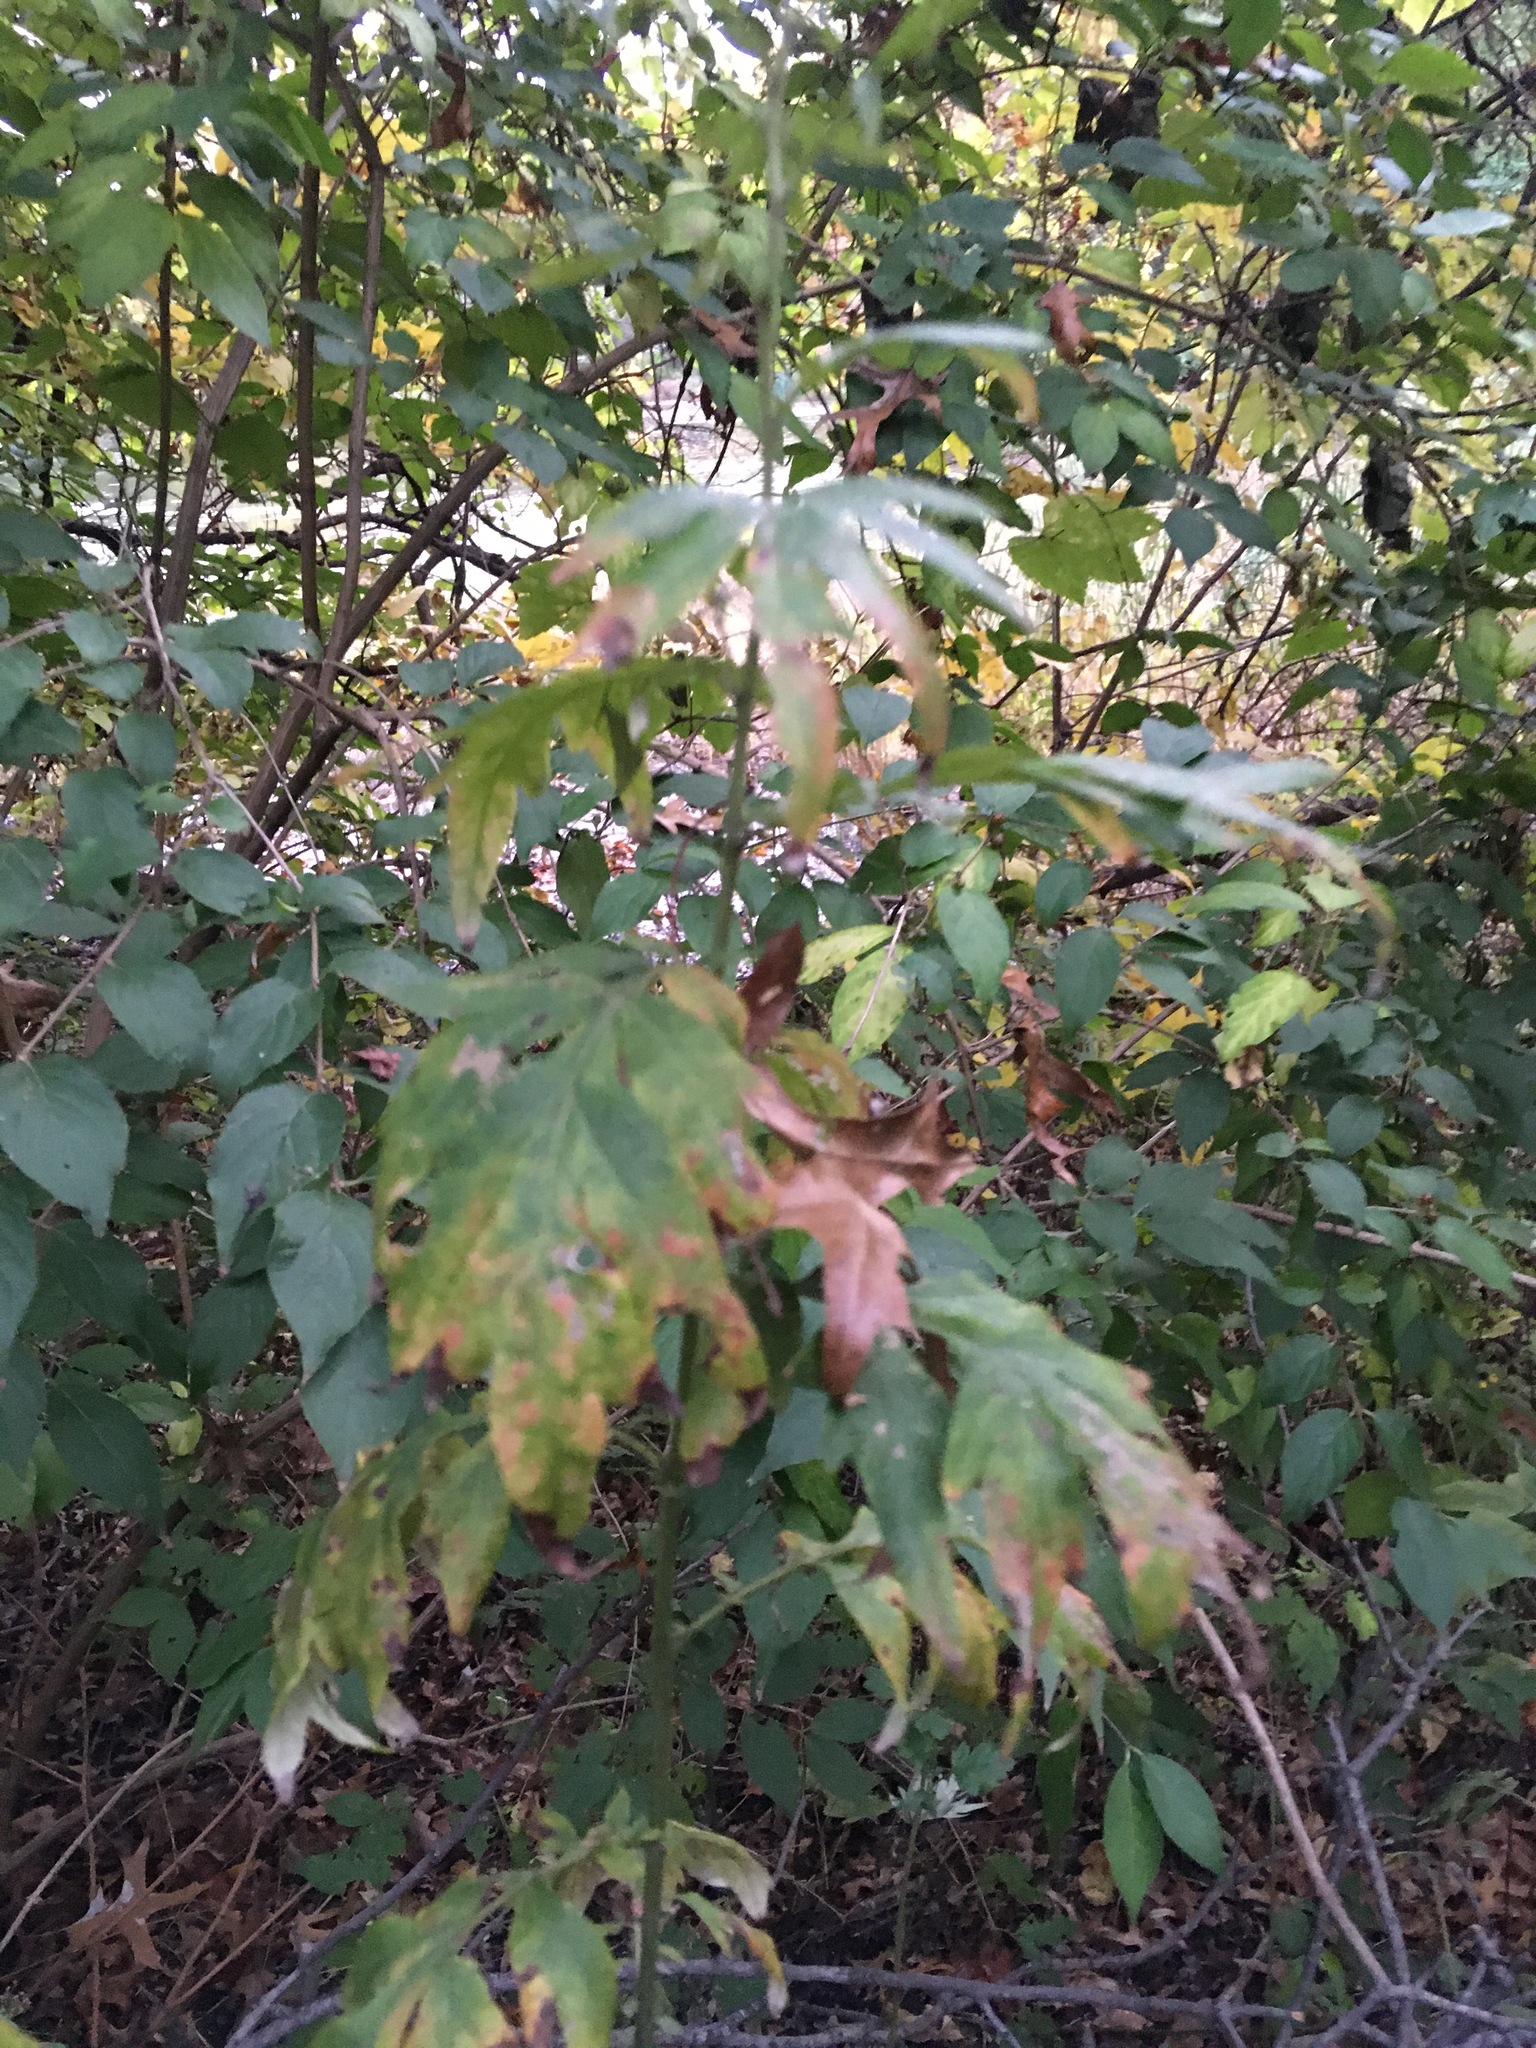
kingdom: Plantae
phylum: Tracheophyta
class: Magnoliopsida
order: Asterales
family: Asteraceae
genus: Artemisia
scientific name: Artemisia vulgaris
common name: Mugwort
